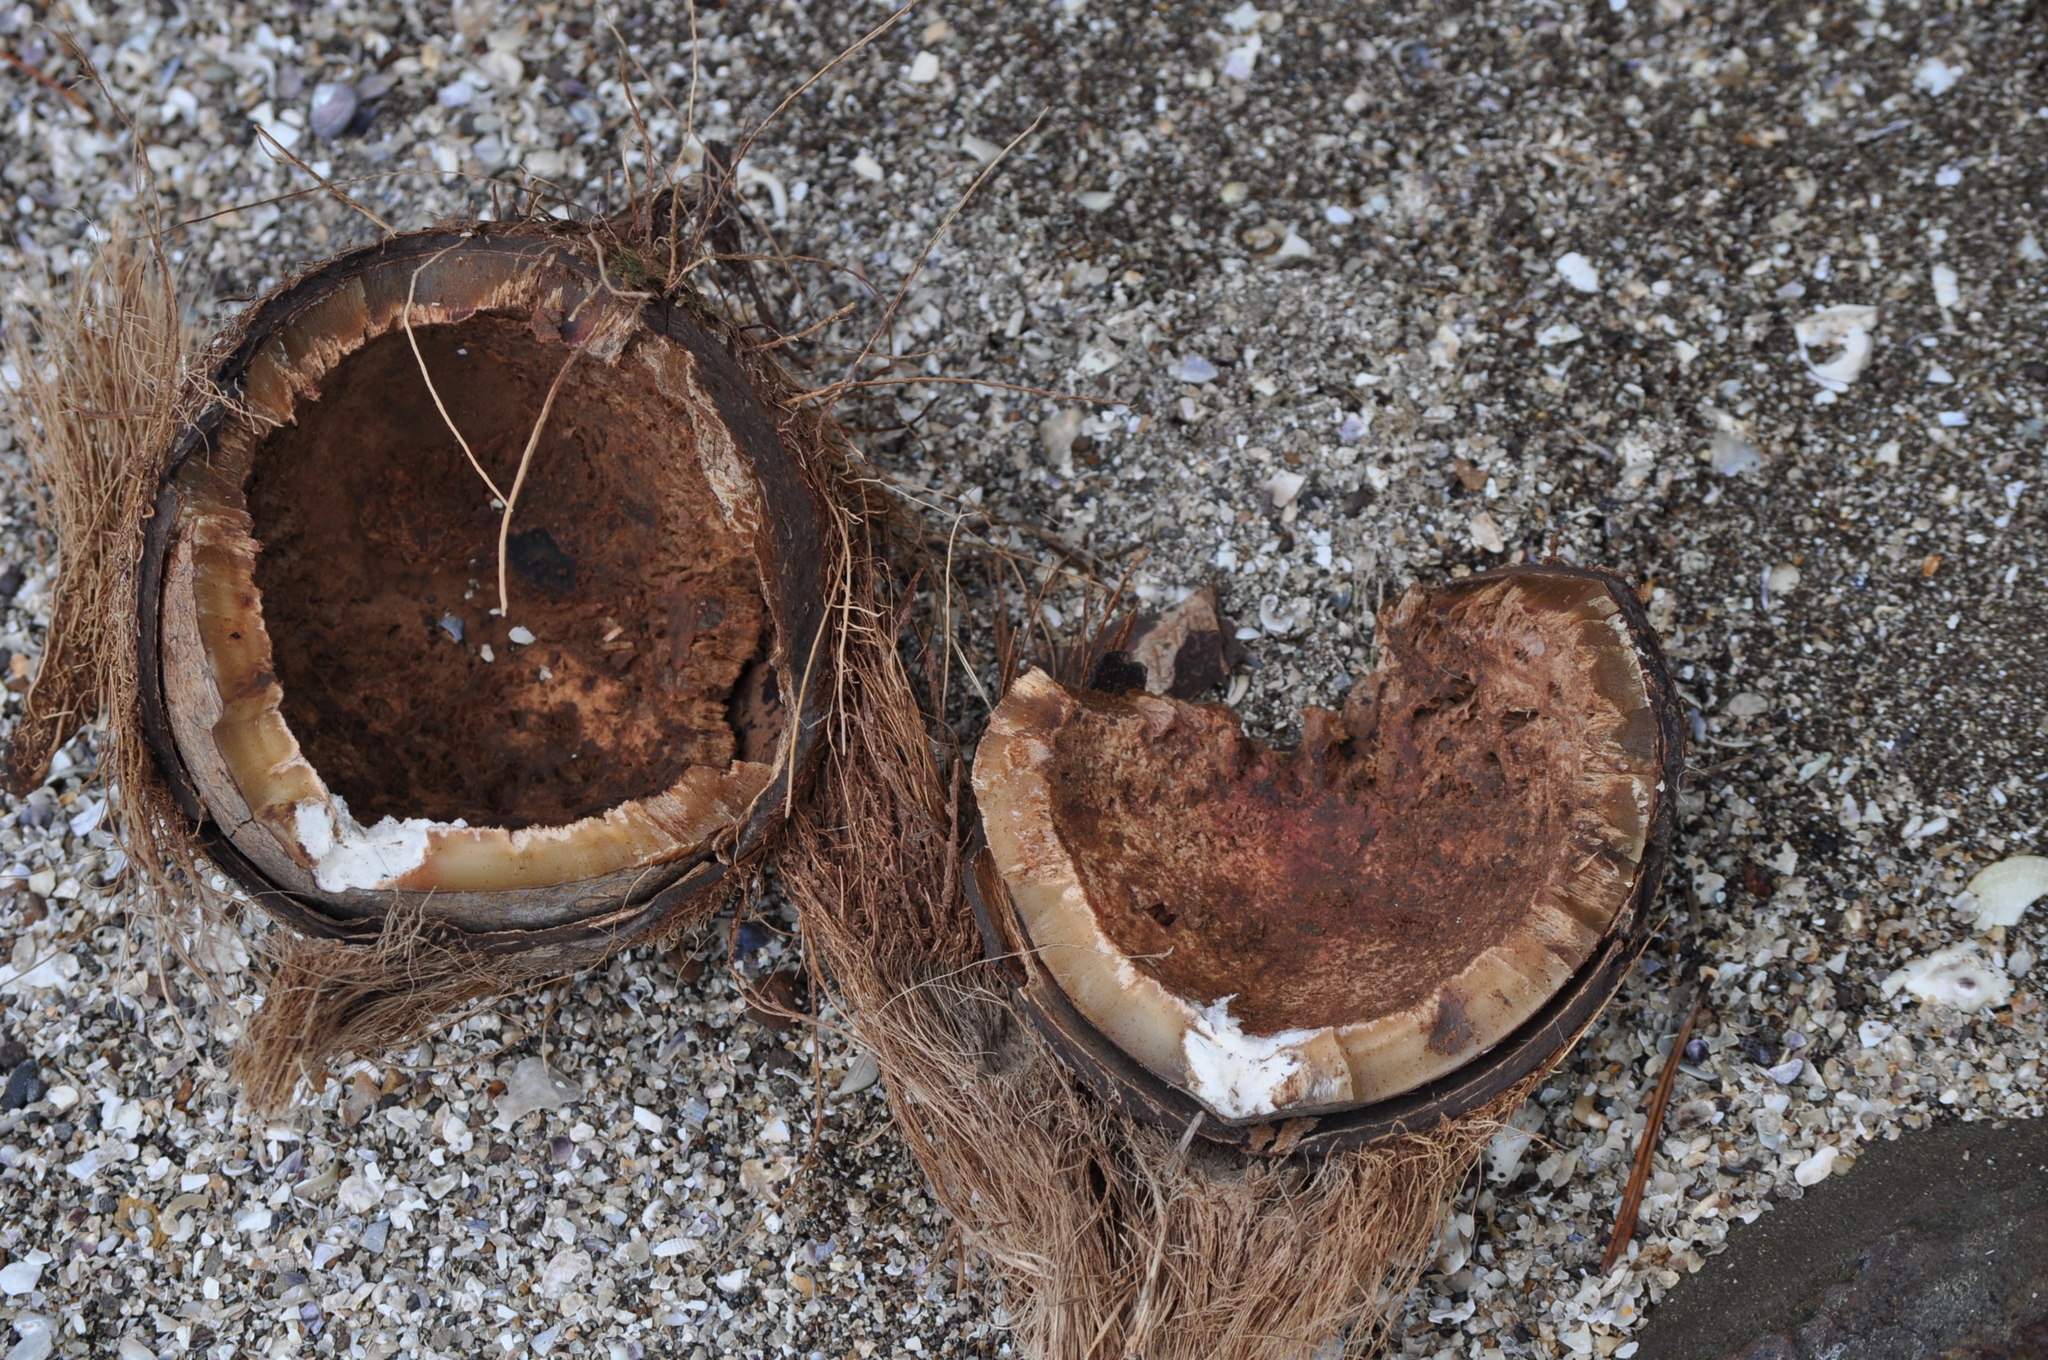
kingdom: Plantae
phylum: Tracheophyta
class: Liliopsida
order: Arecales
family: Arecaceae
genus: Cocos
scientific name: Cocos nucifera
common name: Coconut palm
